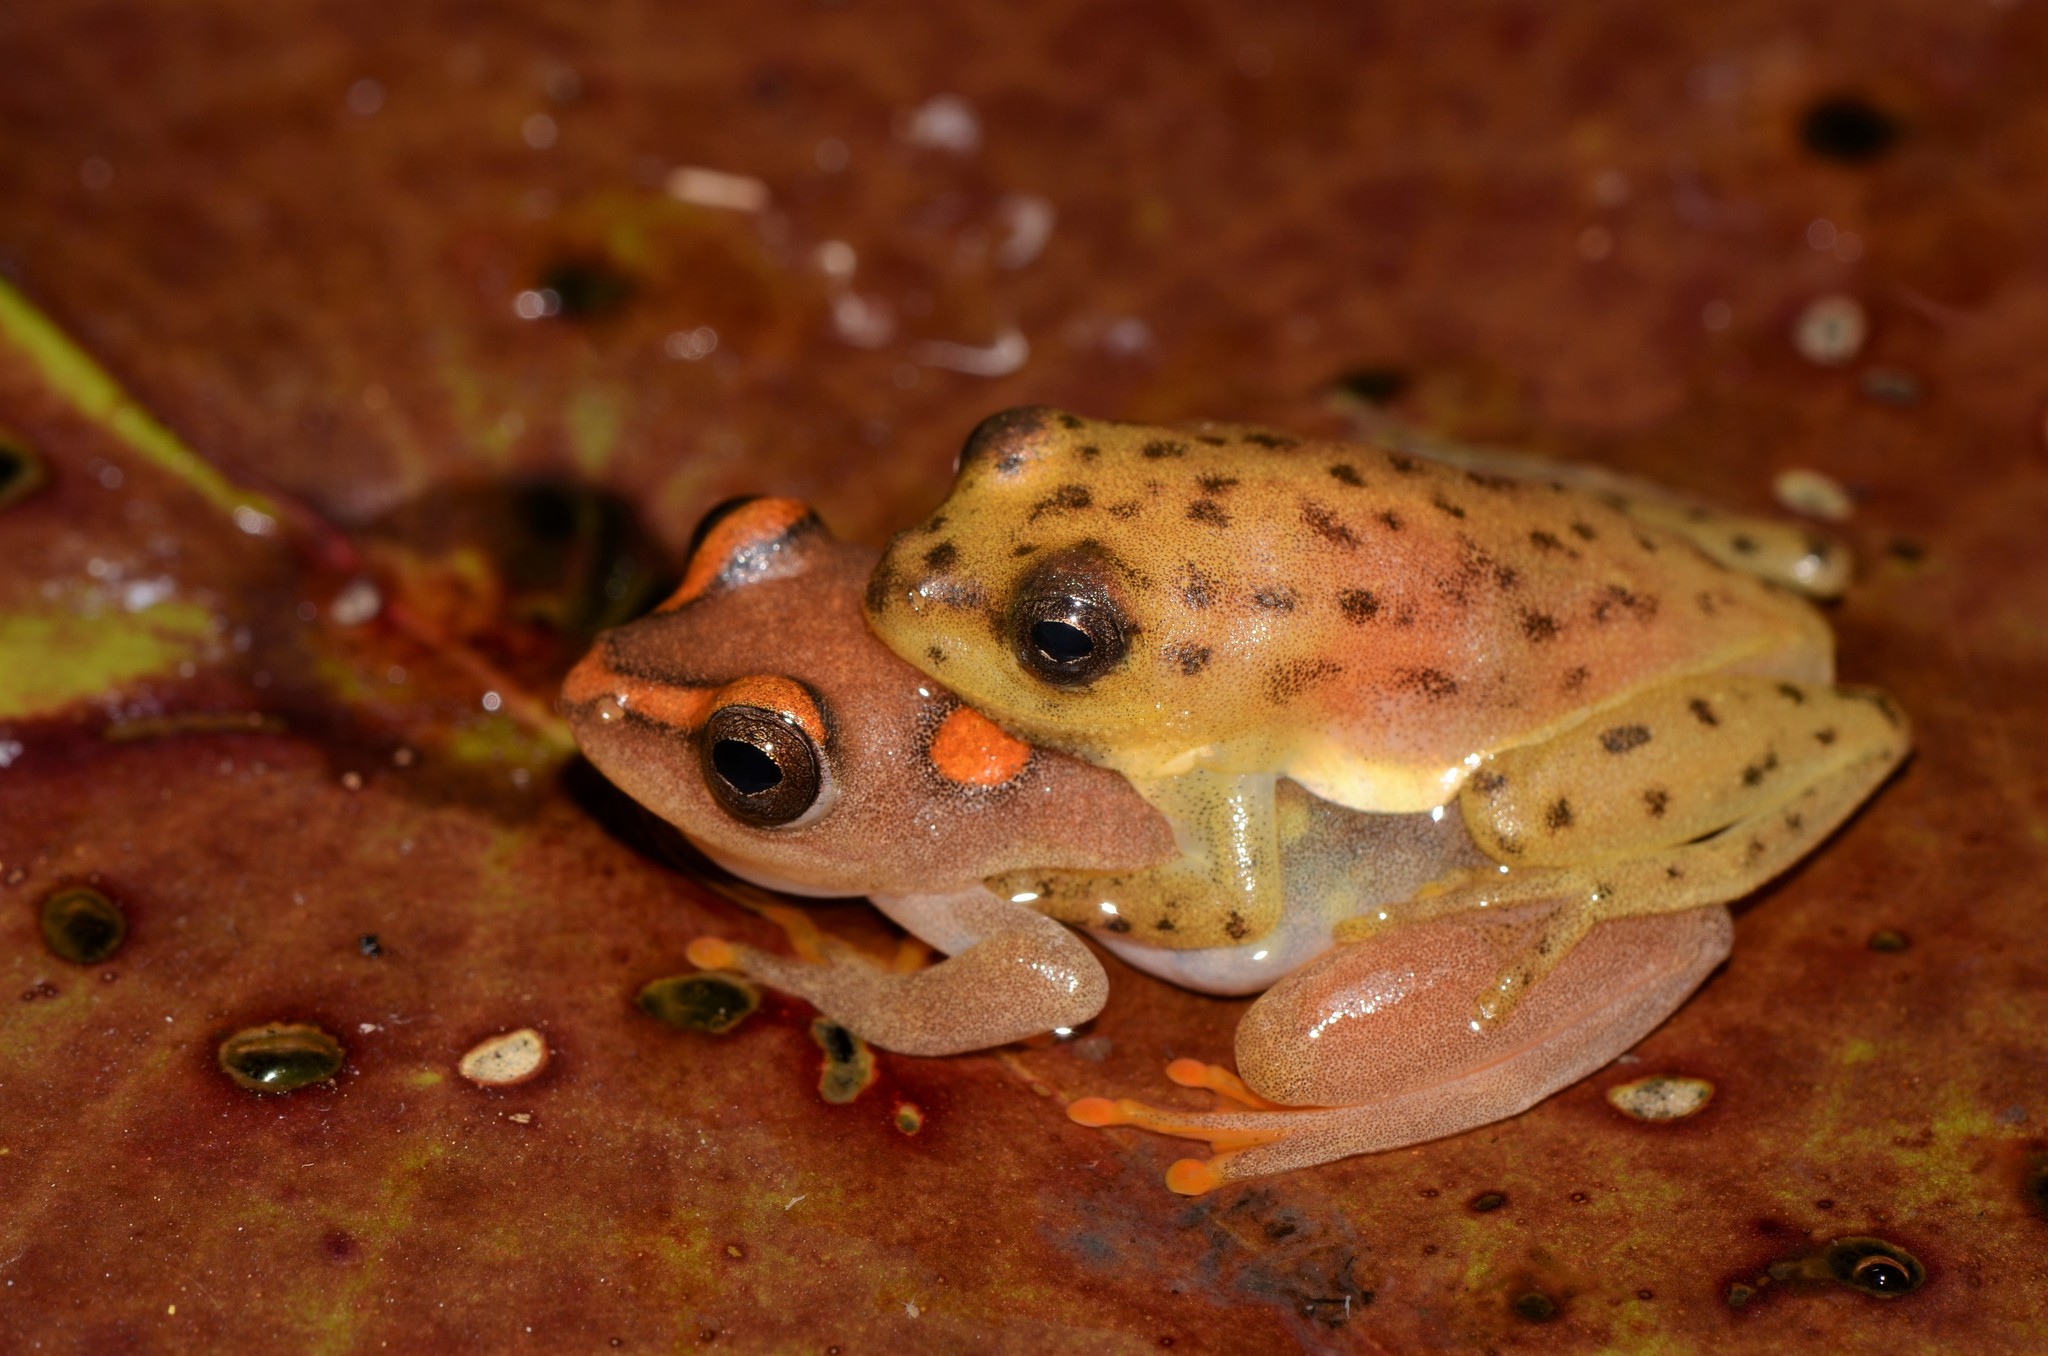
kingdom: Animalia
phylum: Chordata
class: Amphibia
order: Anura
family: Hyperoliidae
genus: Hyperolius
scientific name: Hyperolius argus
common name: Argus reed frog
